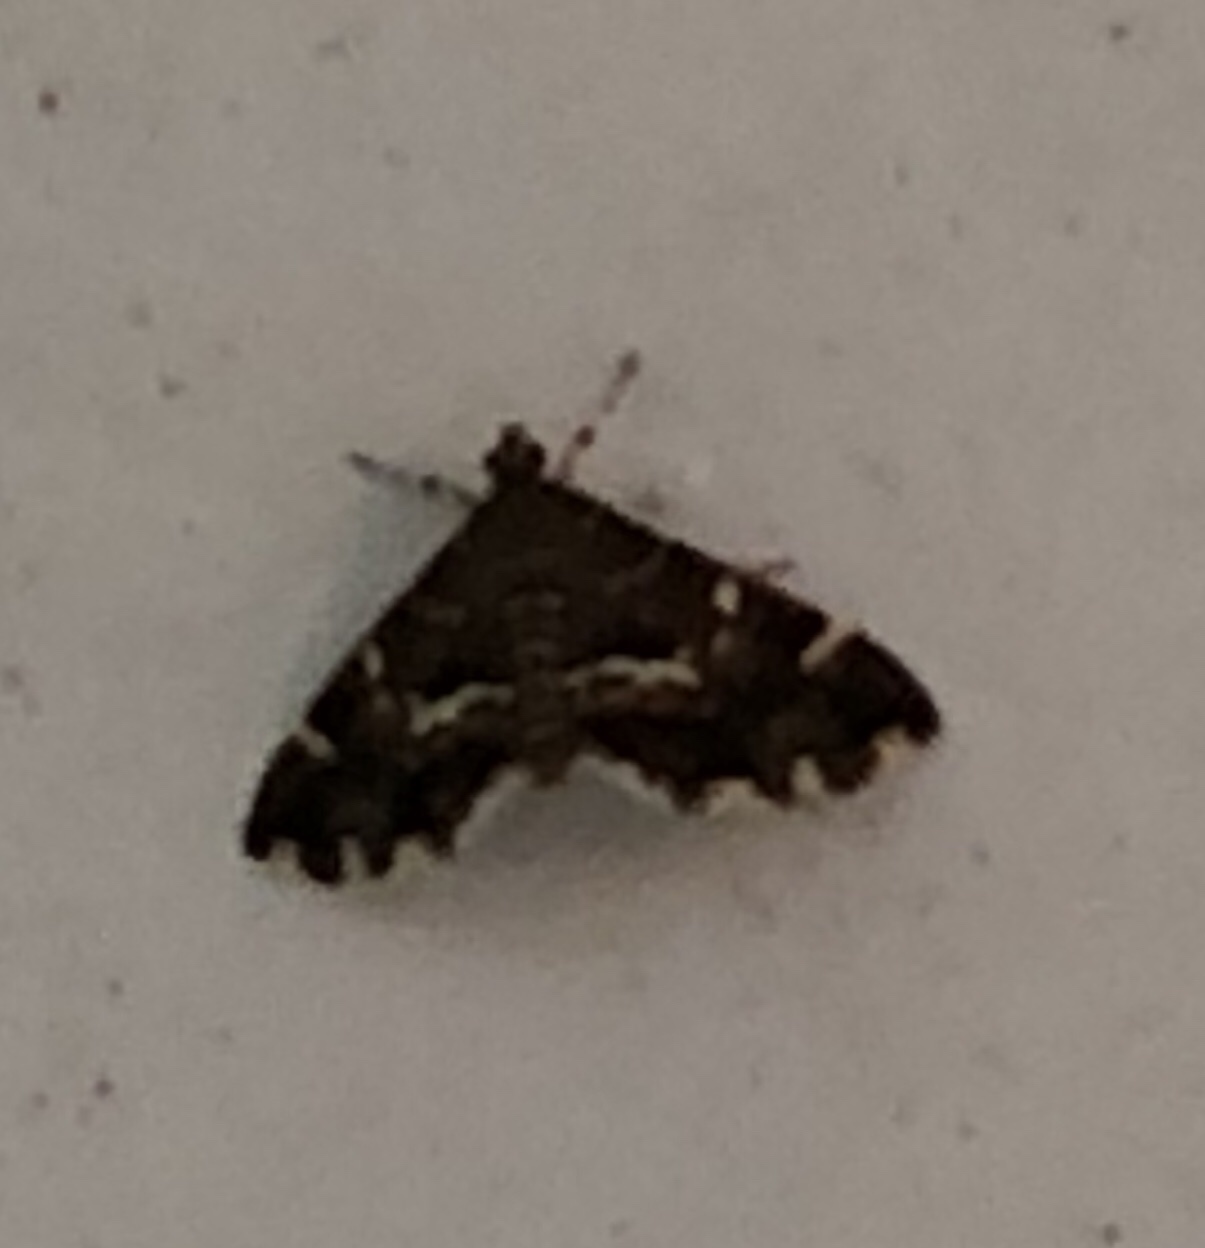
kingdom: Animalia
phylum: Arthropoda
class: Insecta
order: Lepidoptera
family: Crambidae
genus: Hymenia
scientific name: Hymenia perspectalis
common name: Spotted beet webworm
